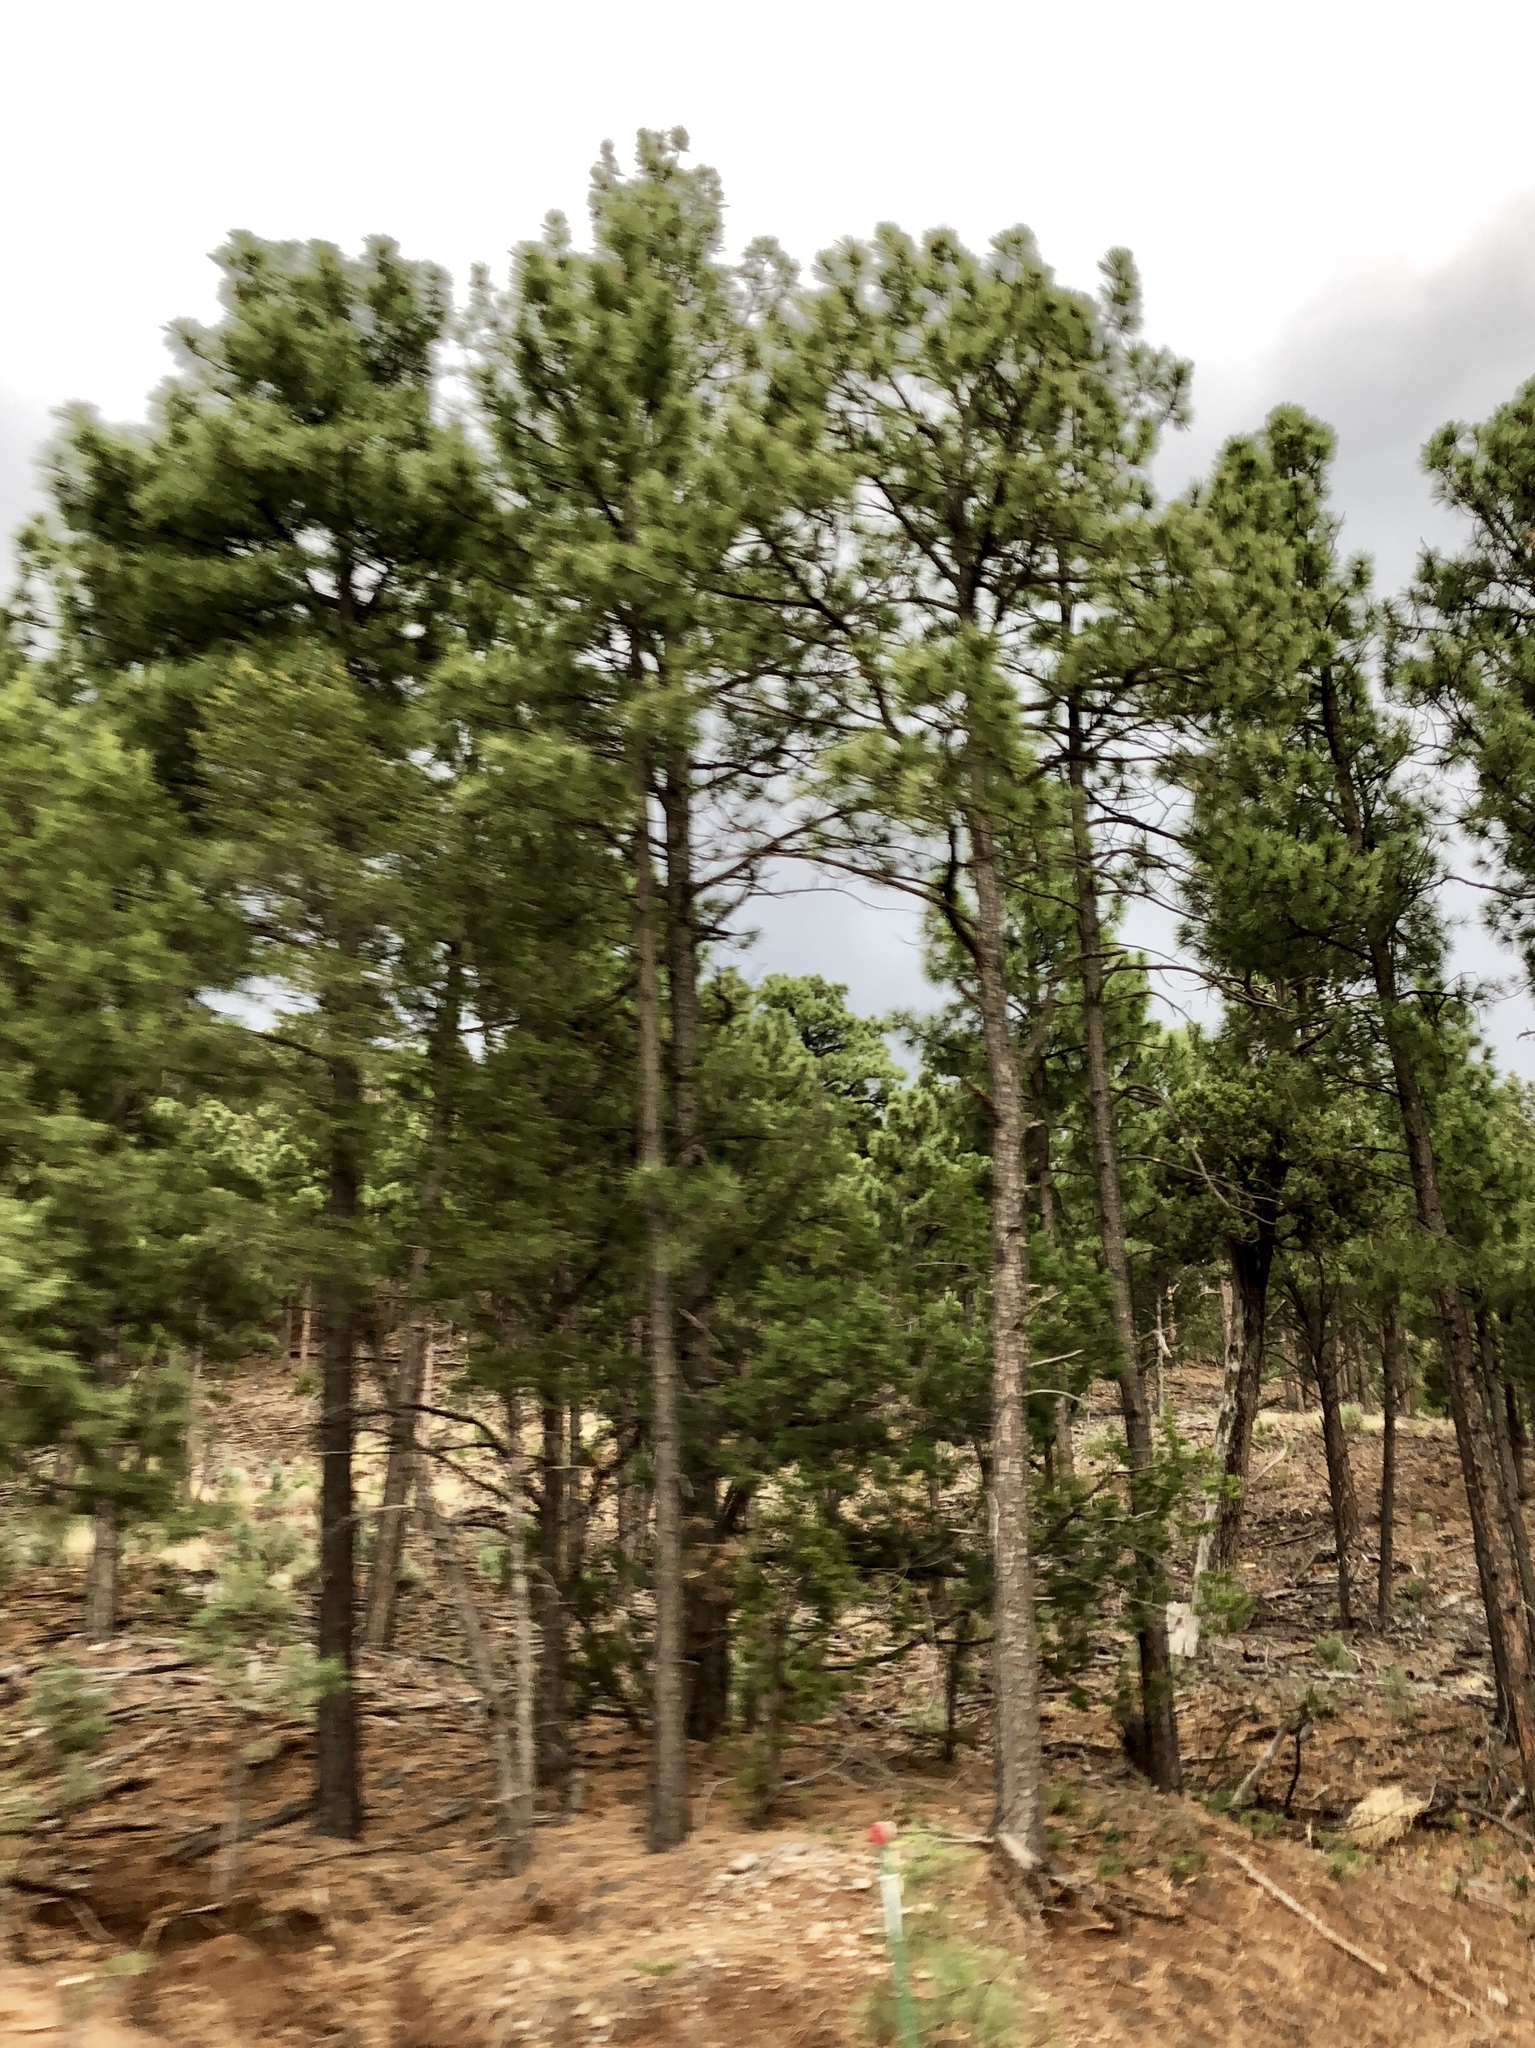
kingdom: Plantae
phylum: Tracheophyta
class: Pinopsida
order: Pinales
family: Pinaceae
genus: Pinus
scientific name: Pinus ponderosa
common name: Western yellow-pine
